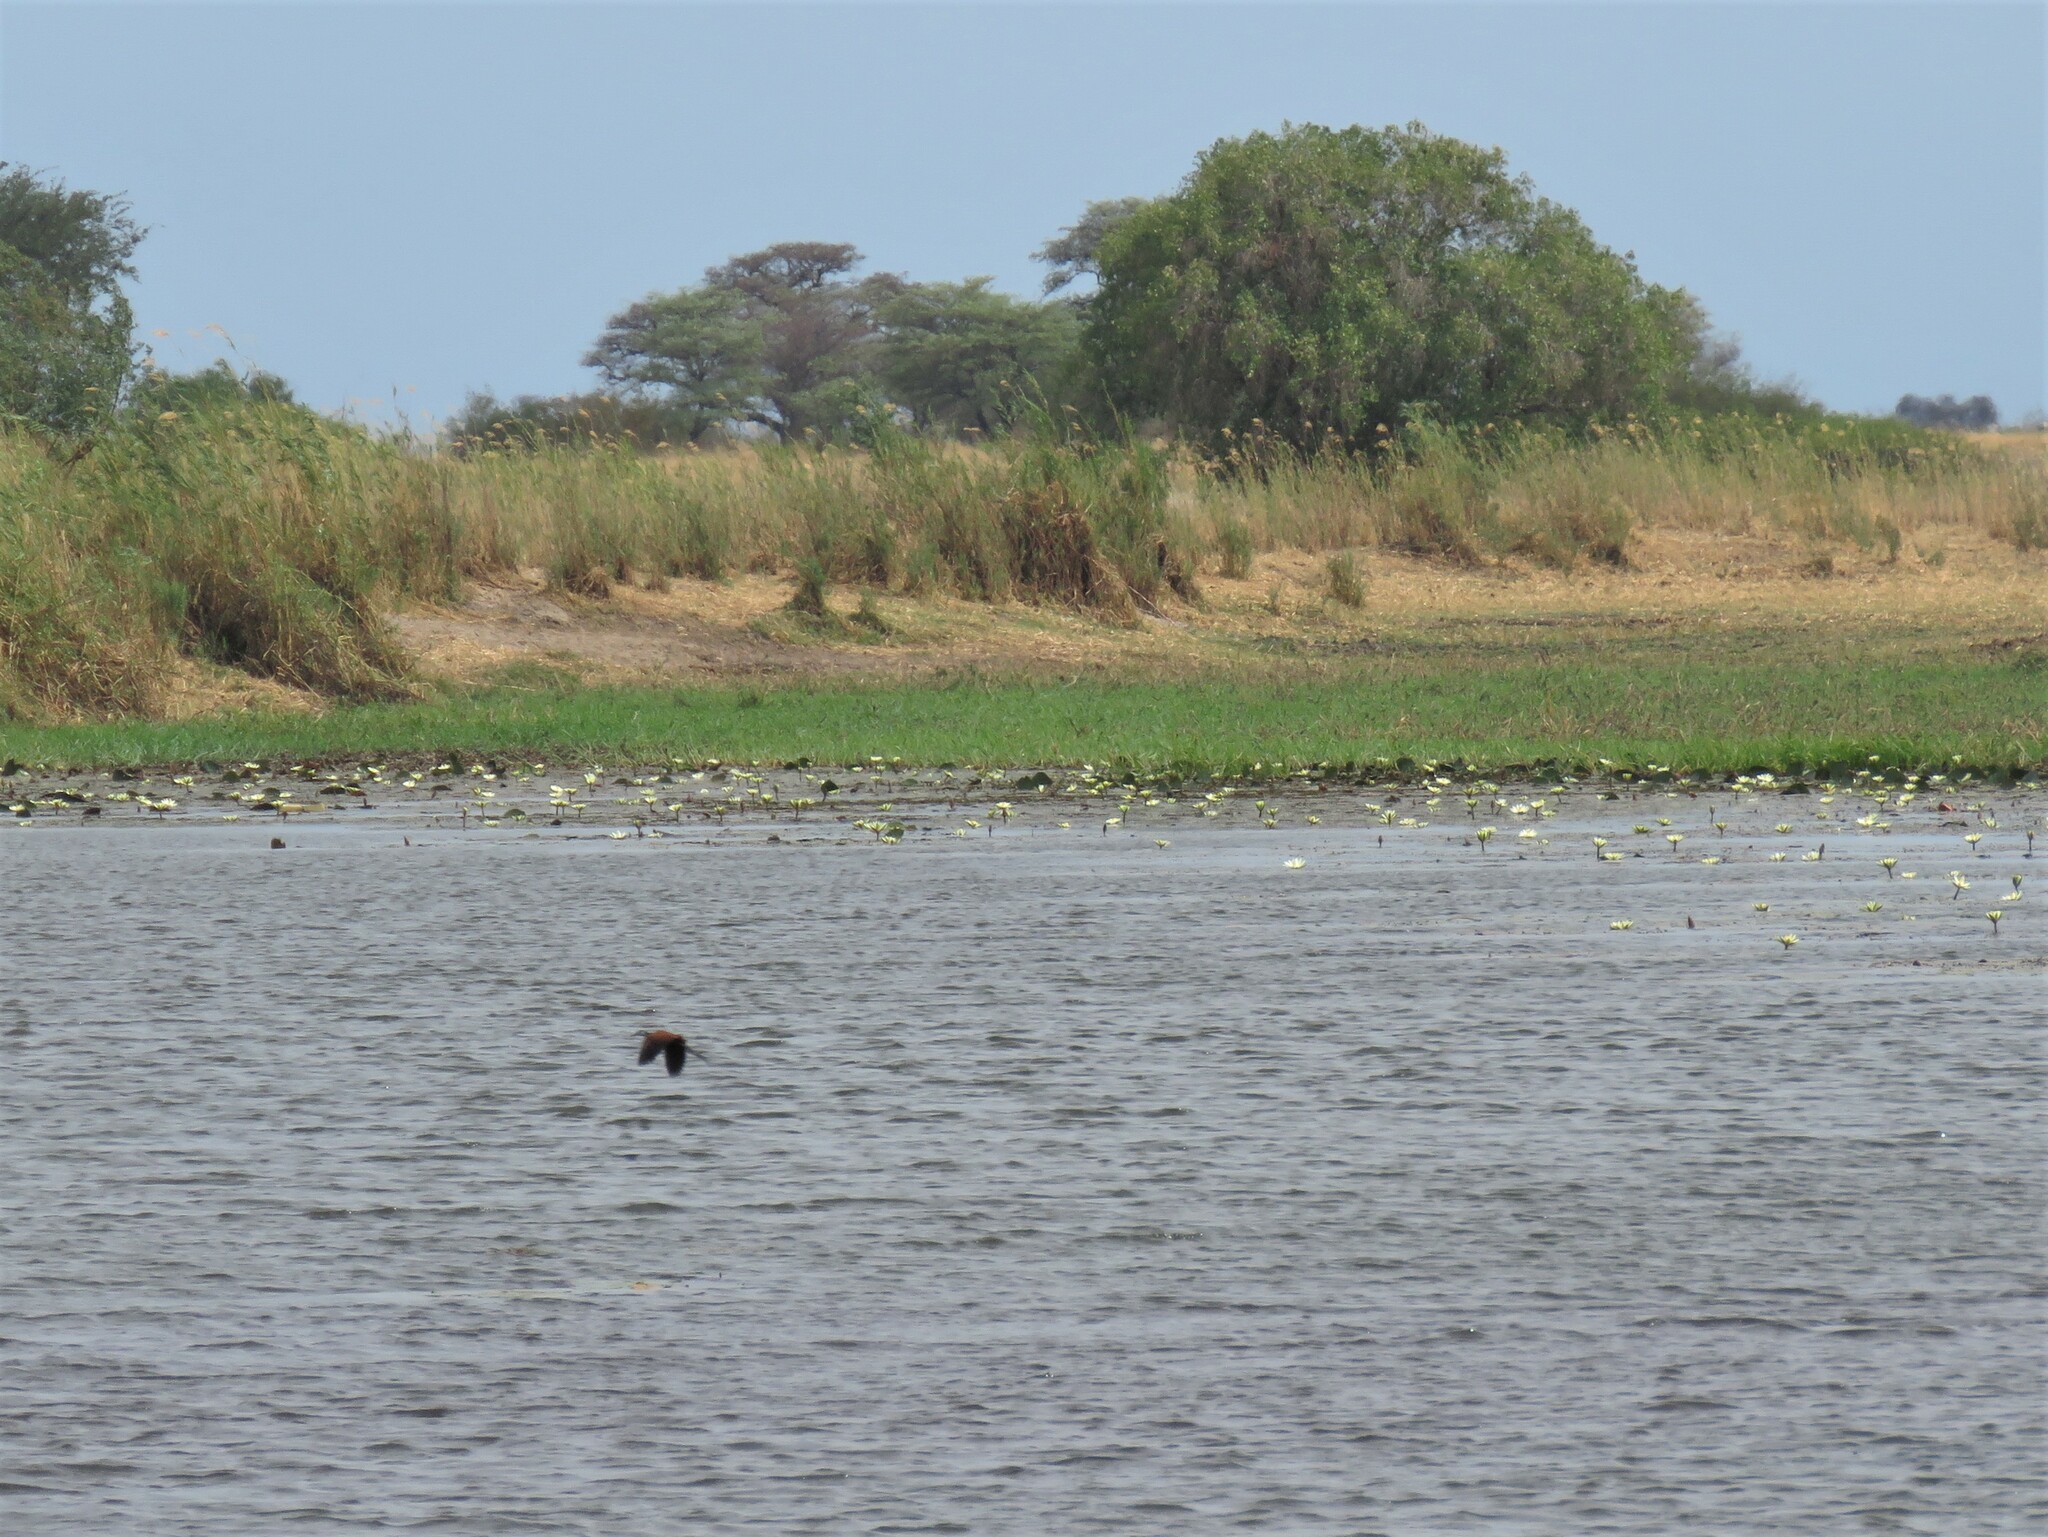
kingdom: Animalia
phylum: Chordata
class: Aves
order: Charadriiformes
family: Jacanidae
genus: Actophilornis
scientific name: Actophilornis africanus
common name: African jacana
